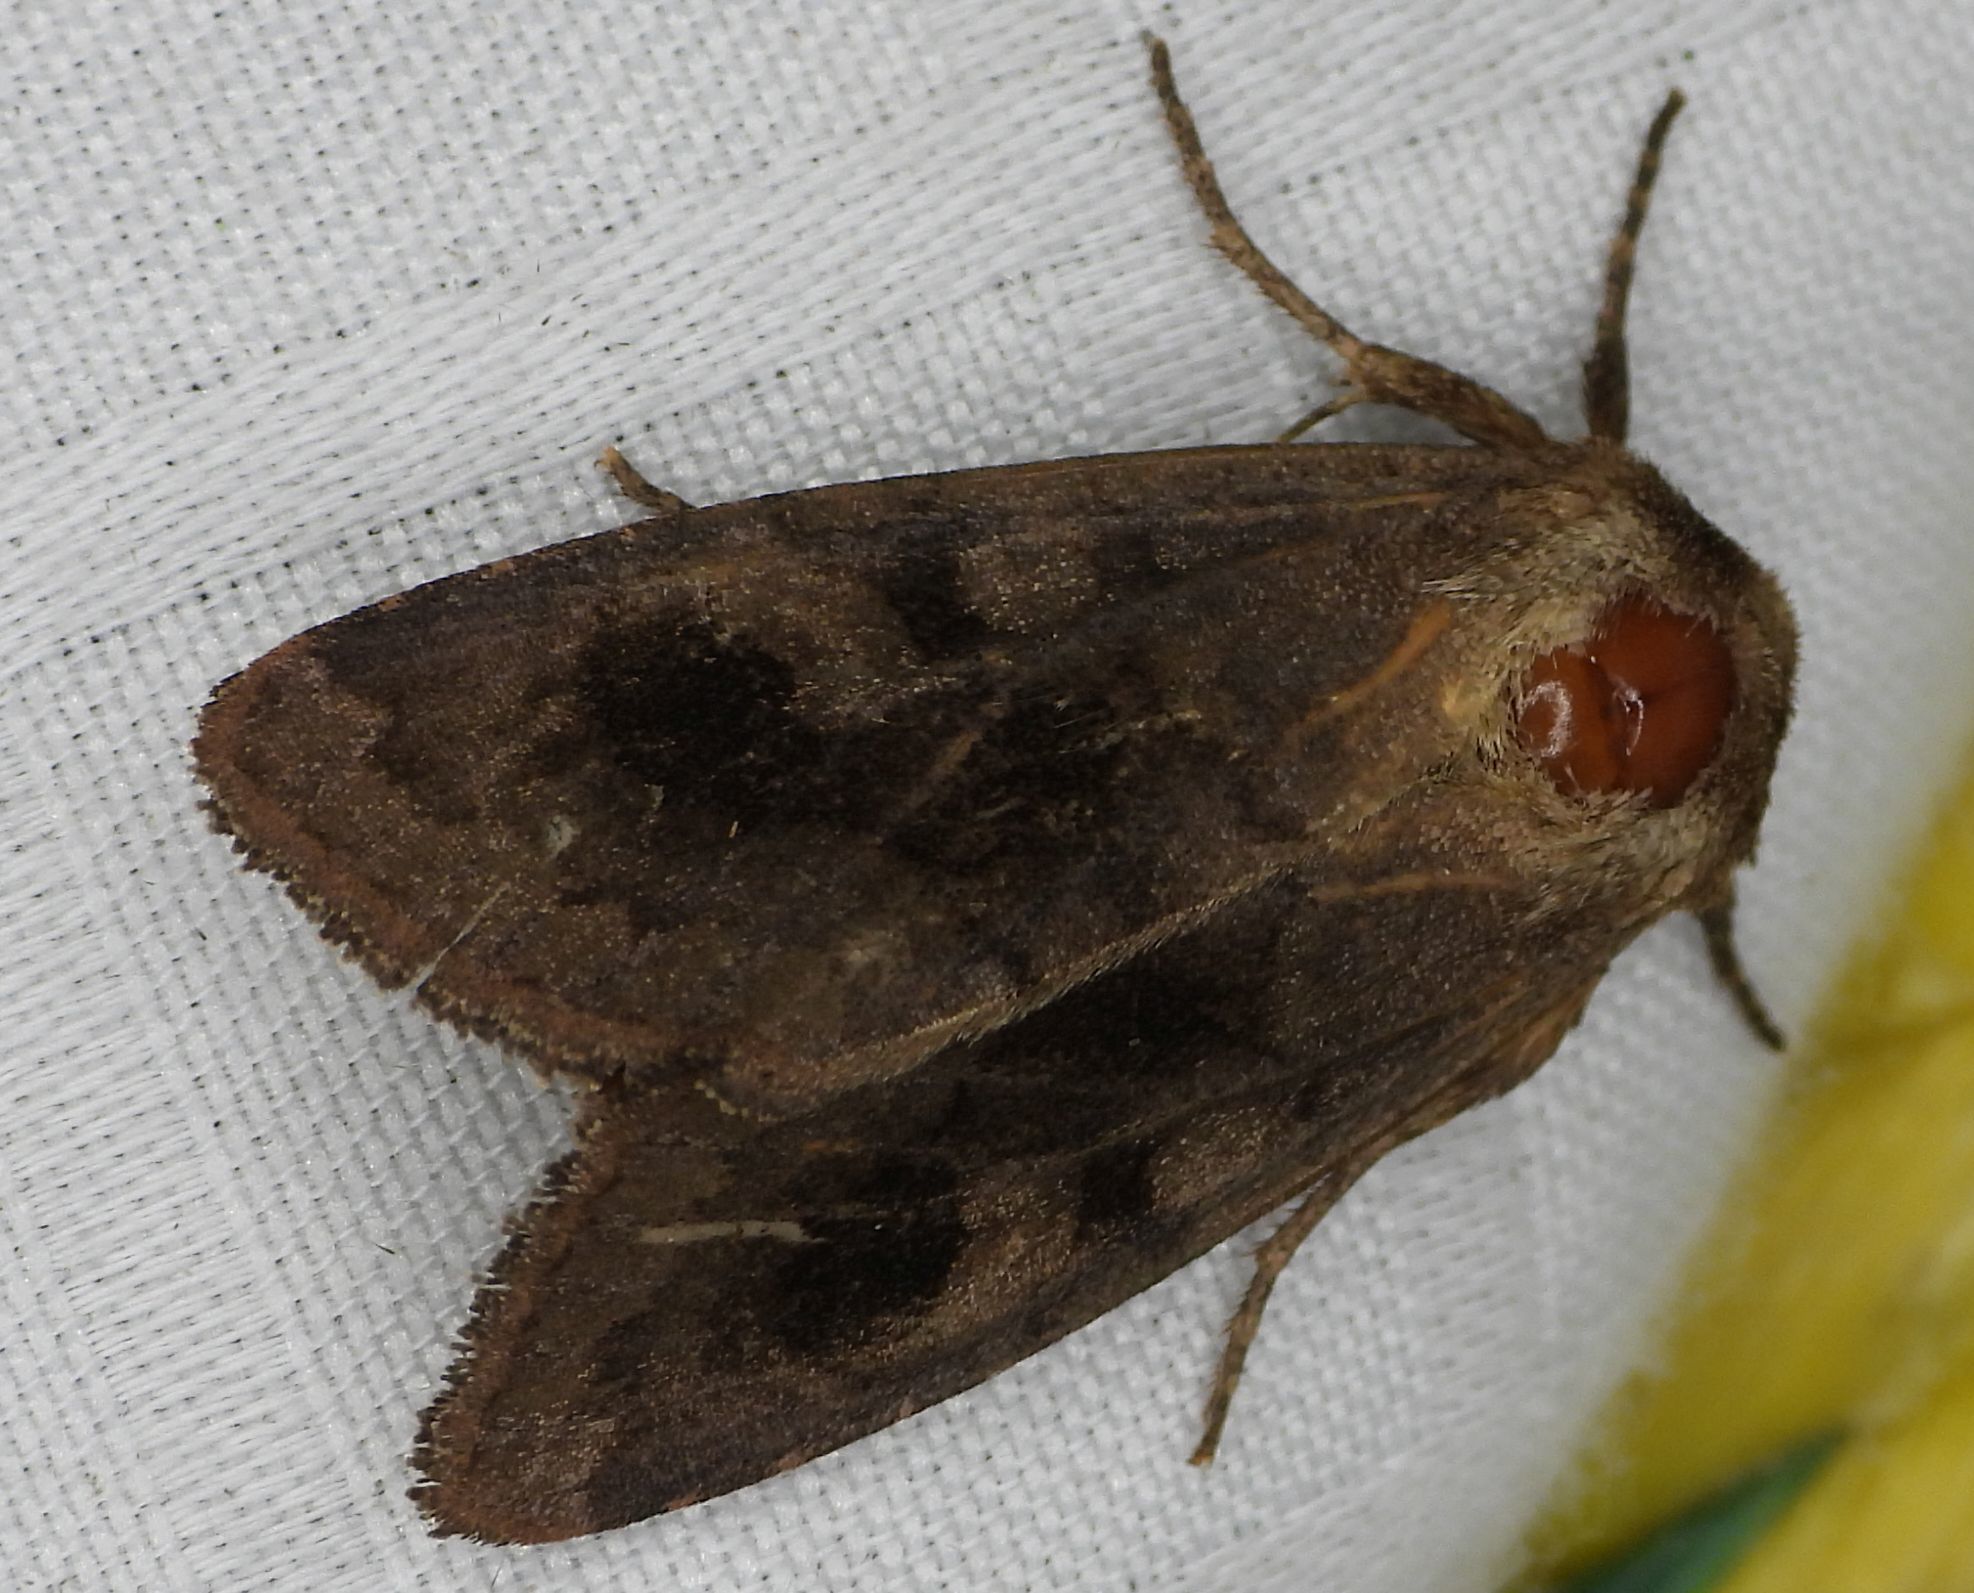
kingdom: Animalia
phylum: Arthropoda
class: Insecta
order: Lepidoptera
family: Noctuidae
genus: Nephelodes
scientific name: Nephelodes minians
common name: Bronzed cutworm
